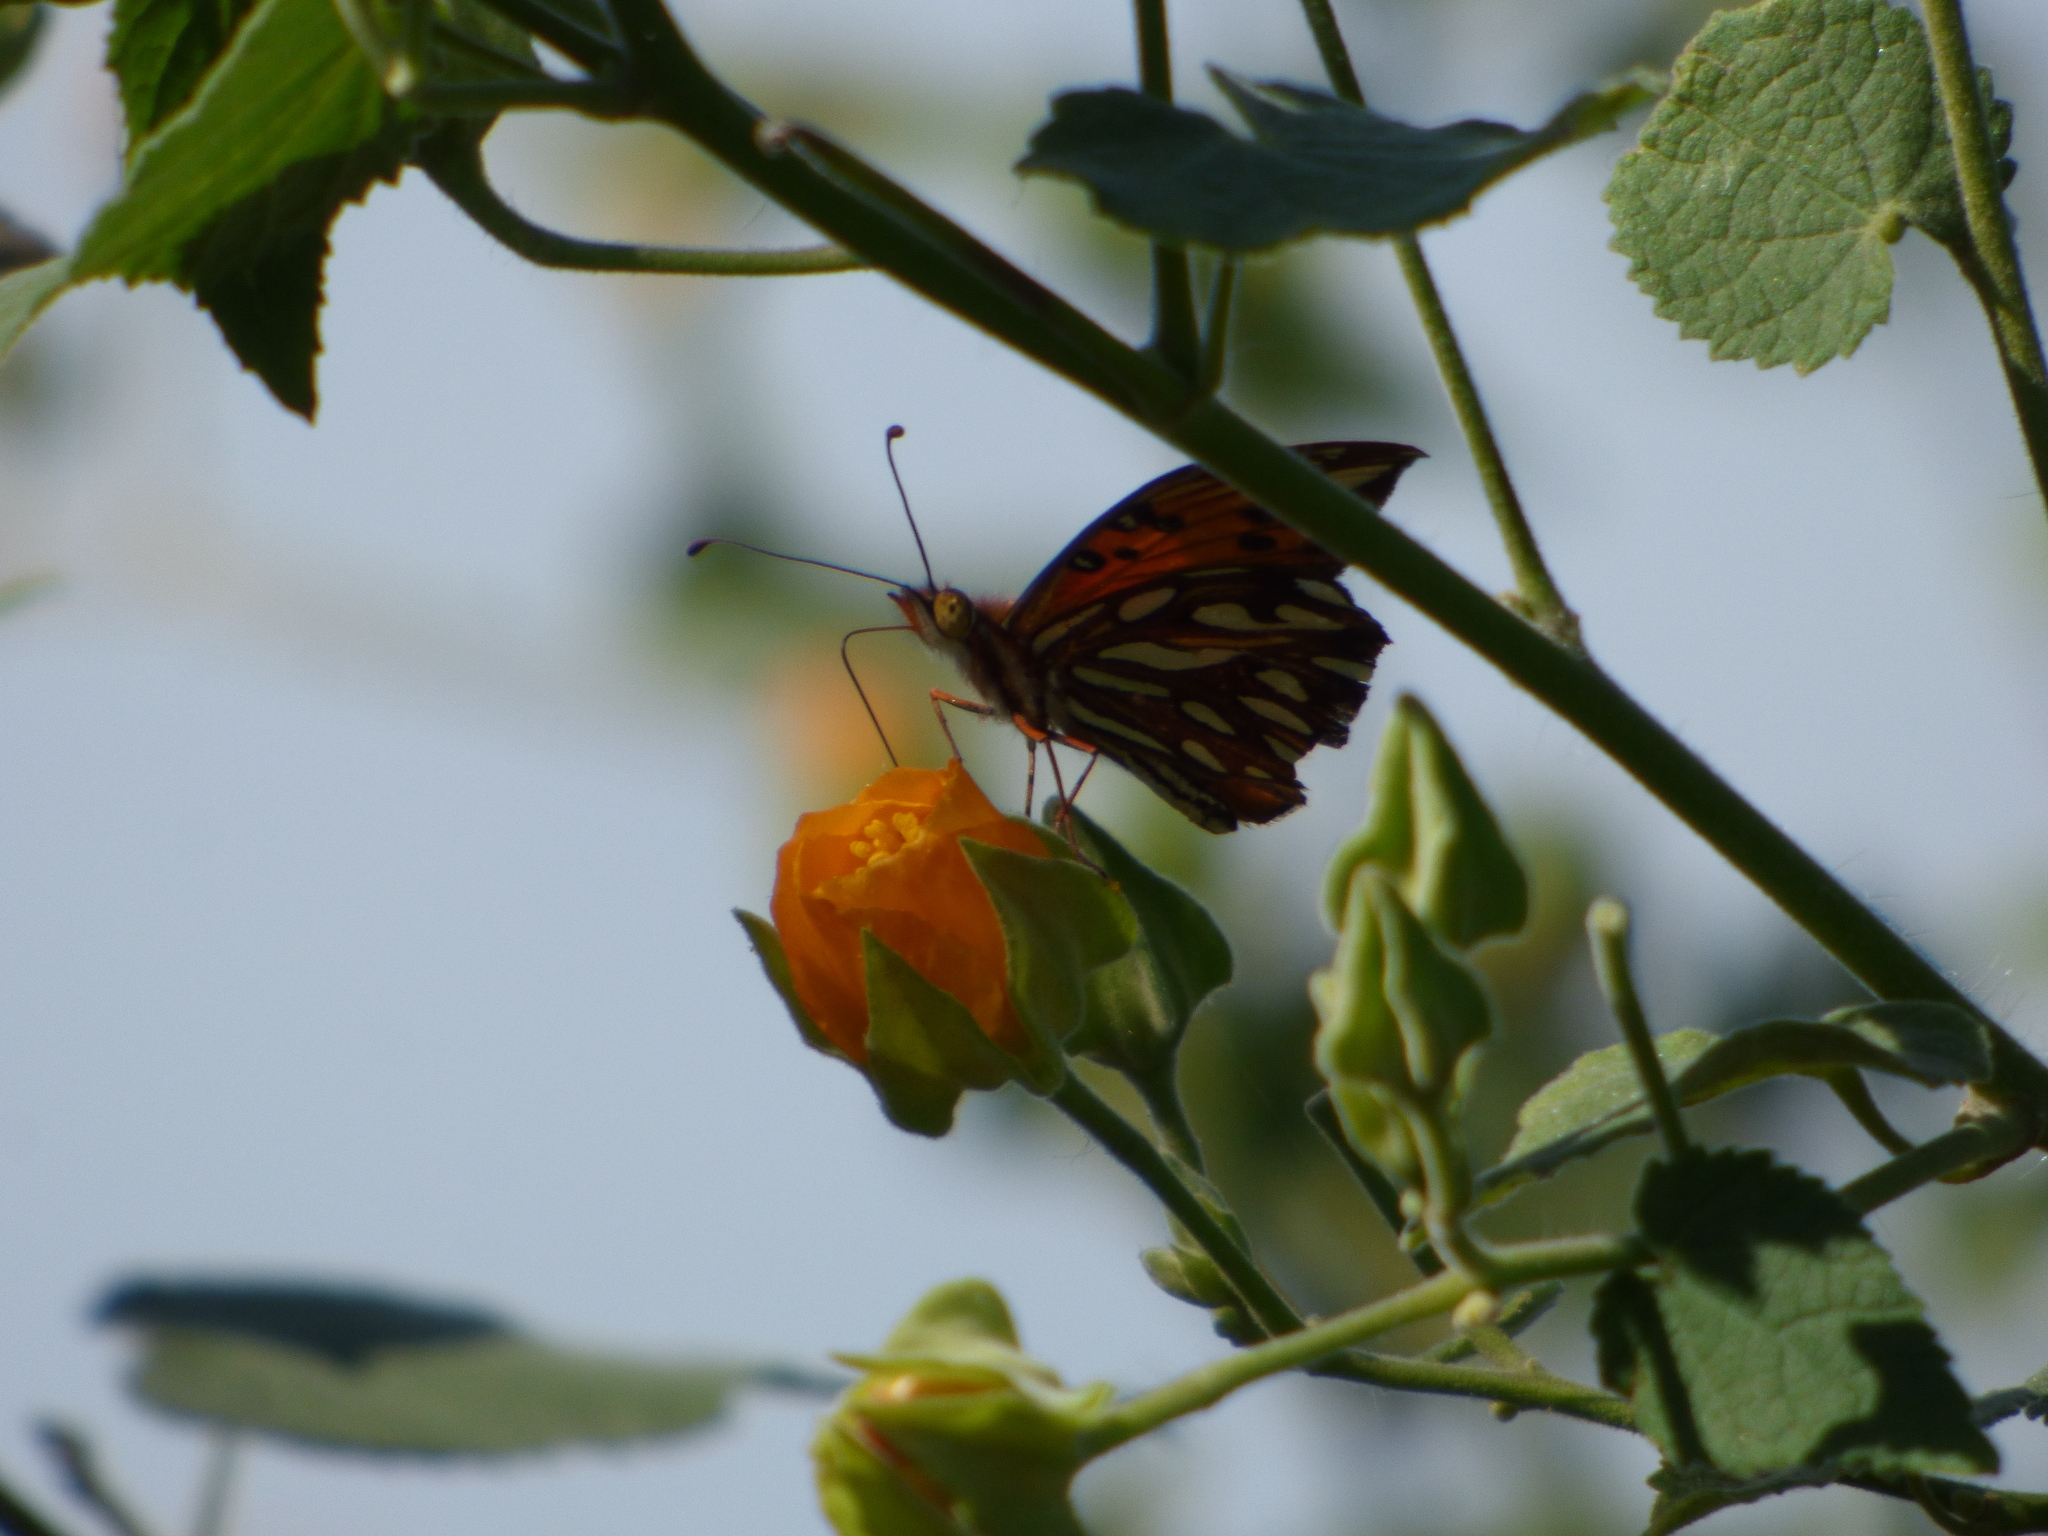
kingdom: Animalia
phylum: Arthropoda
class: Insecta
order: Lepidoptera
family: Nymphalidae
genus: Dione
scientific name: Dione vanillae
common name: Gulf fritillary
